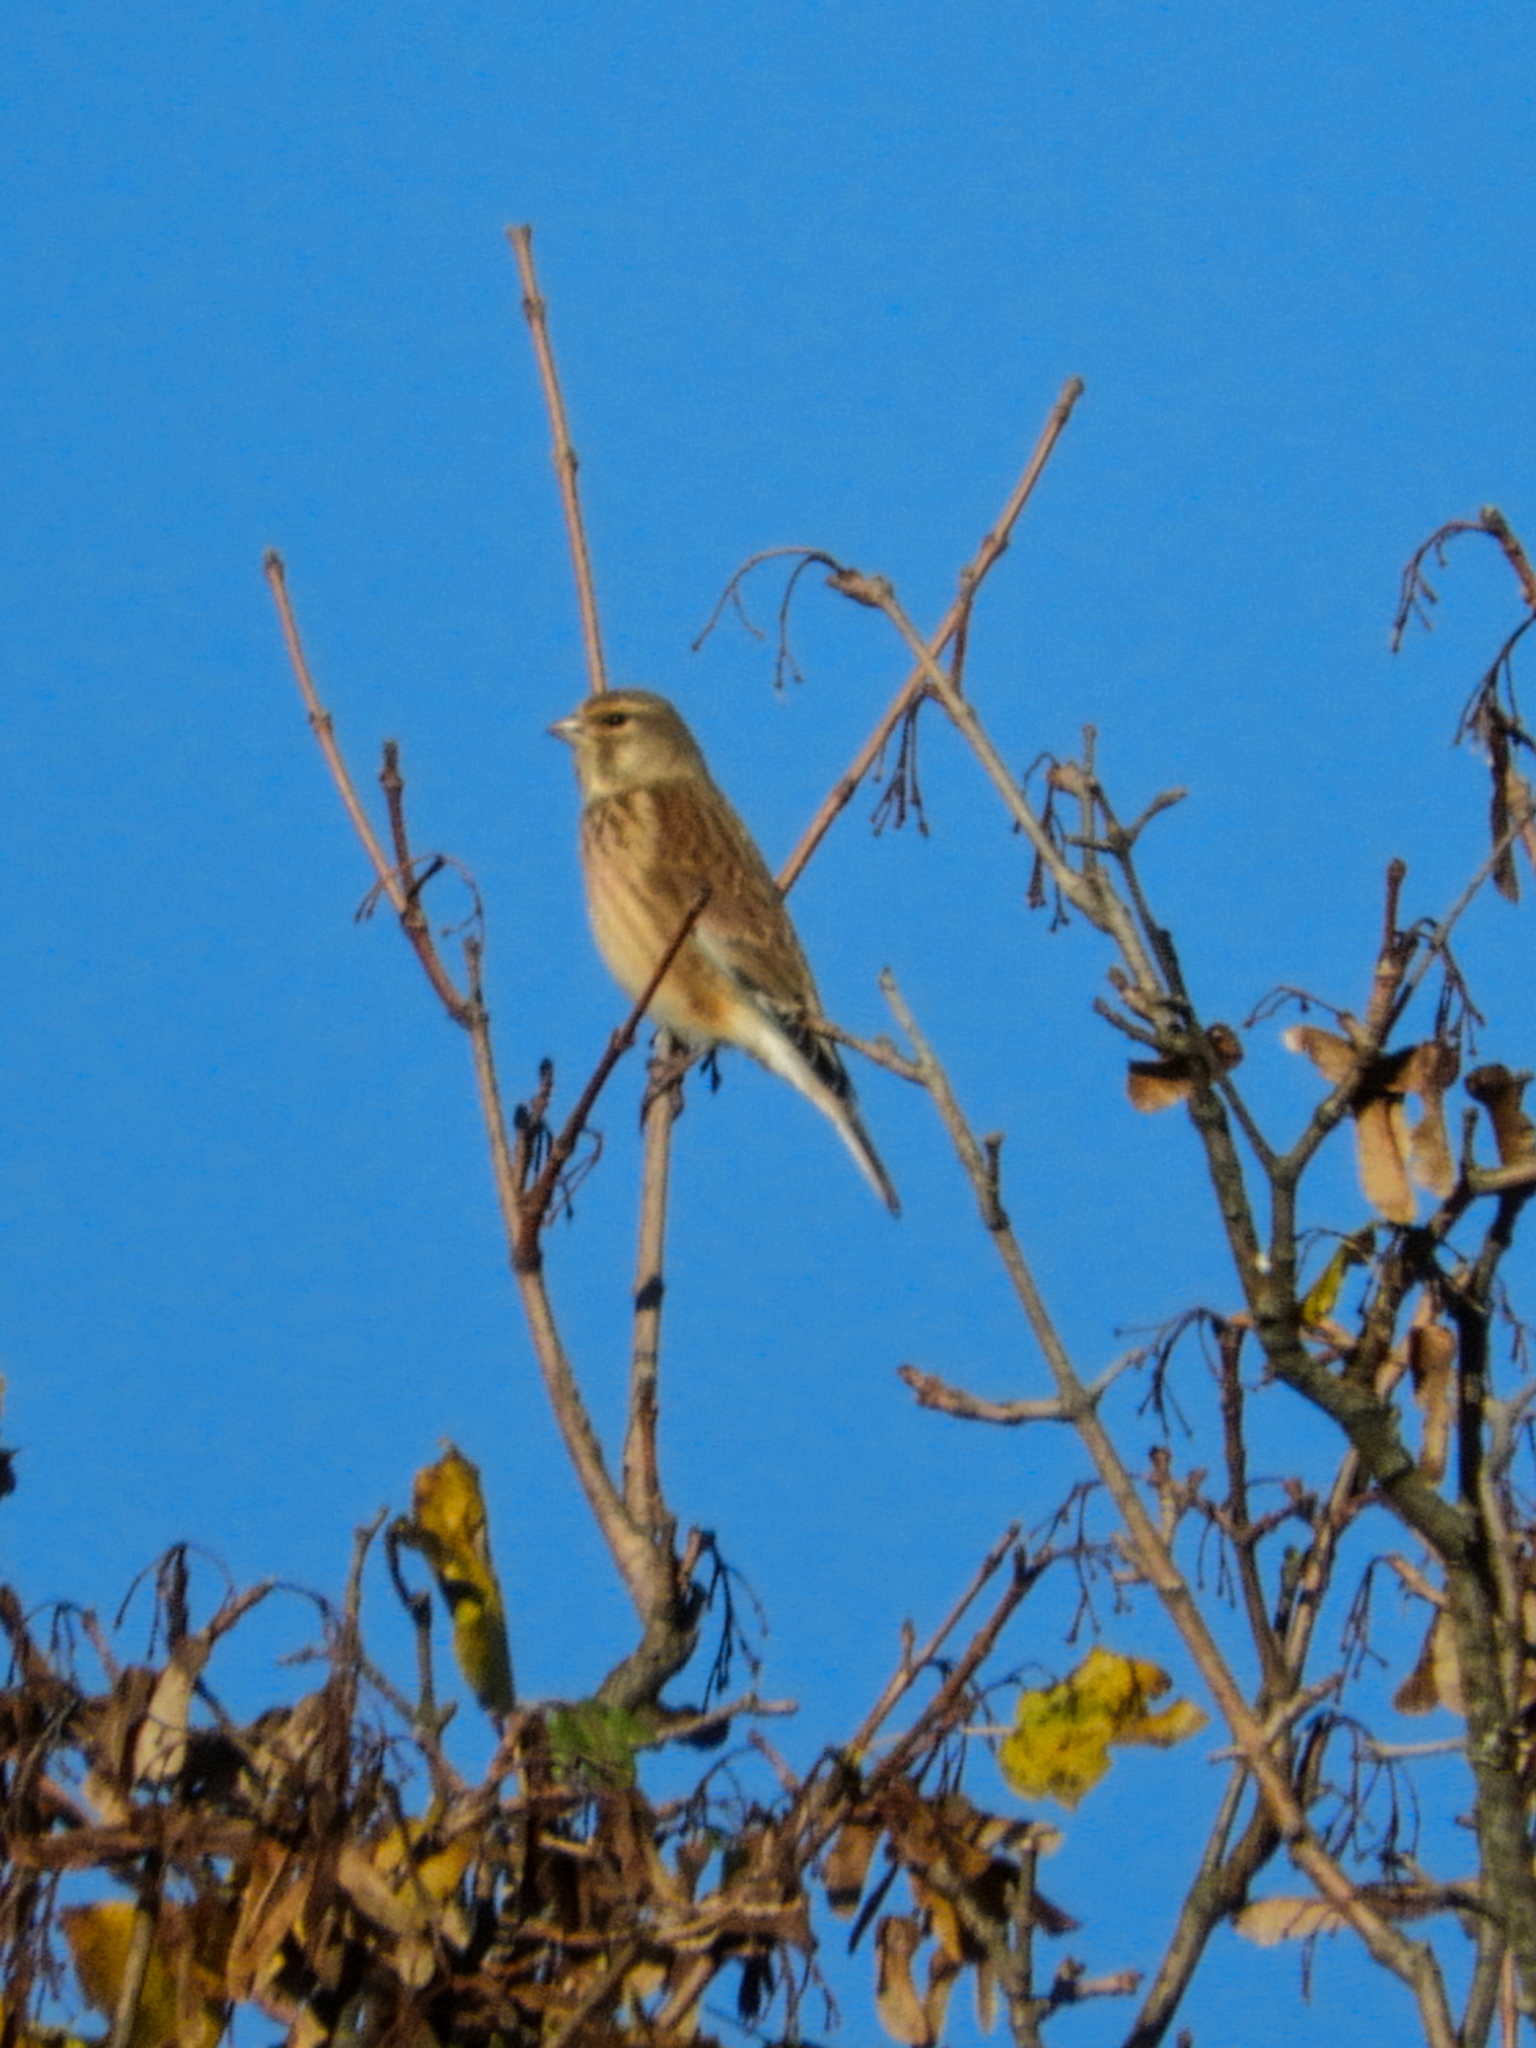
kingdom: Animalia
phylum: Chordata
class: Aves
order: Passeriformes
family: Fringillidae
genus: Linaria
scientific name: Linaria cannabina
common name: Common linnet
